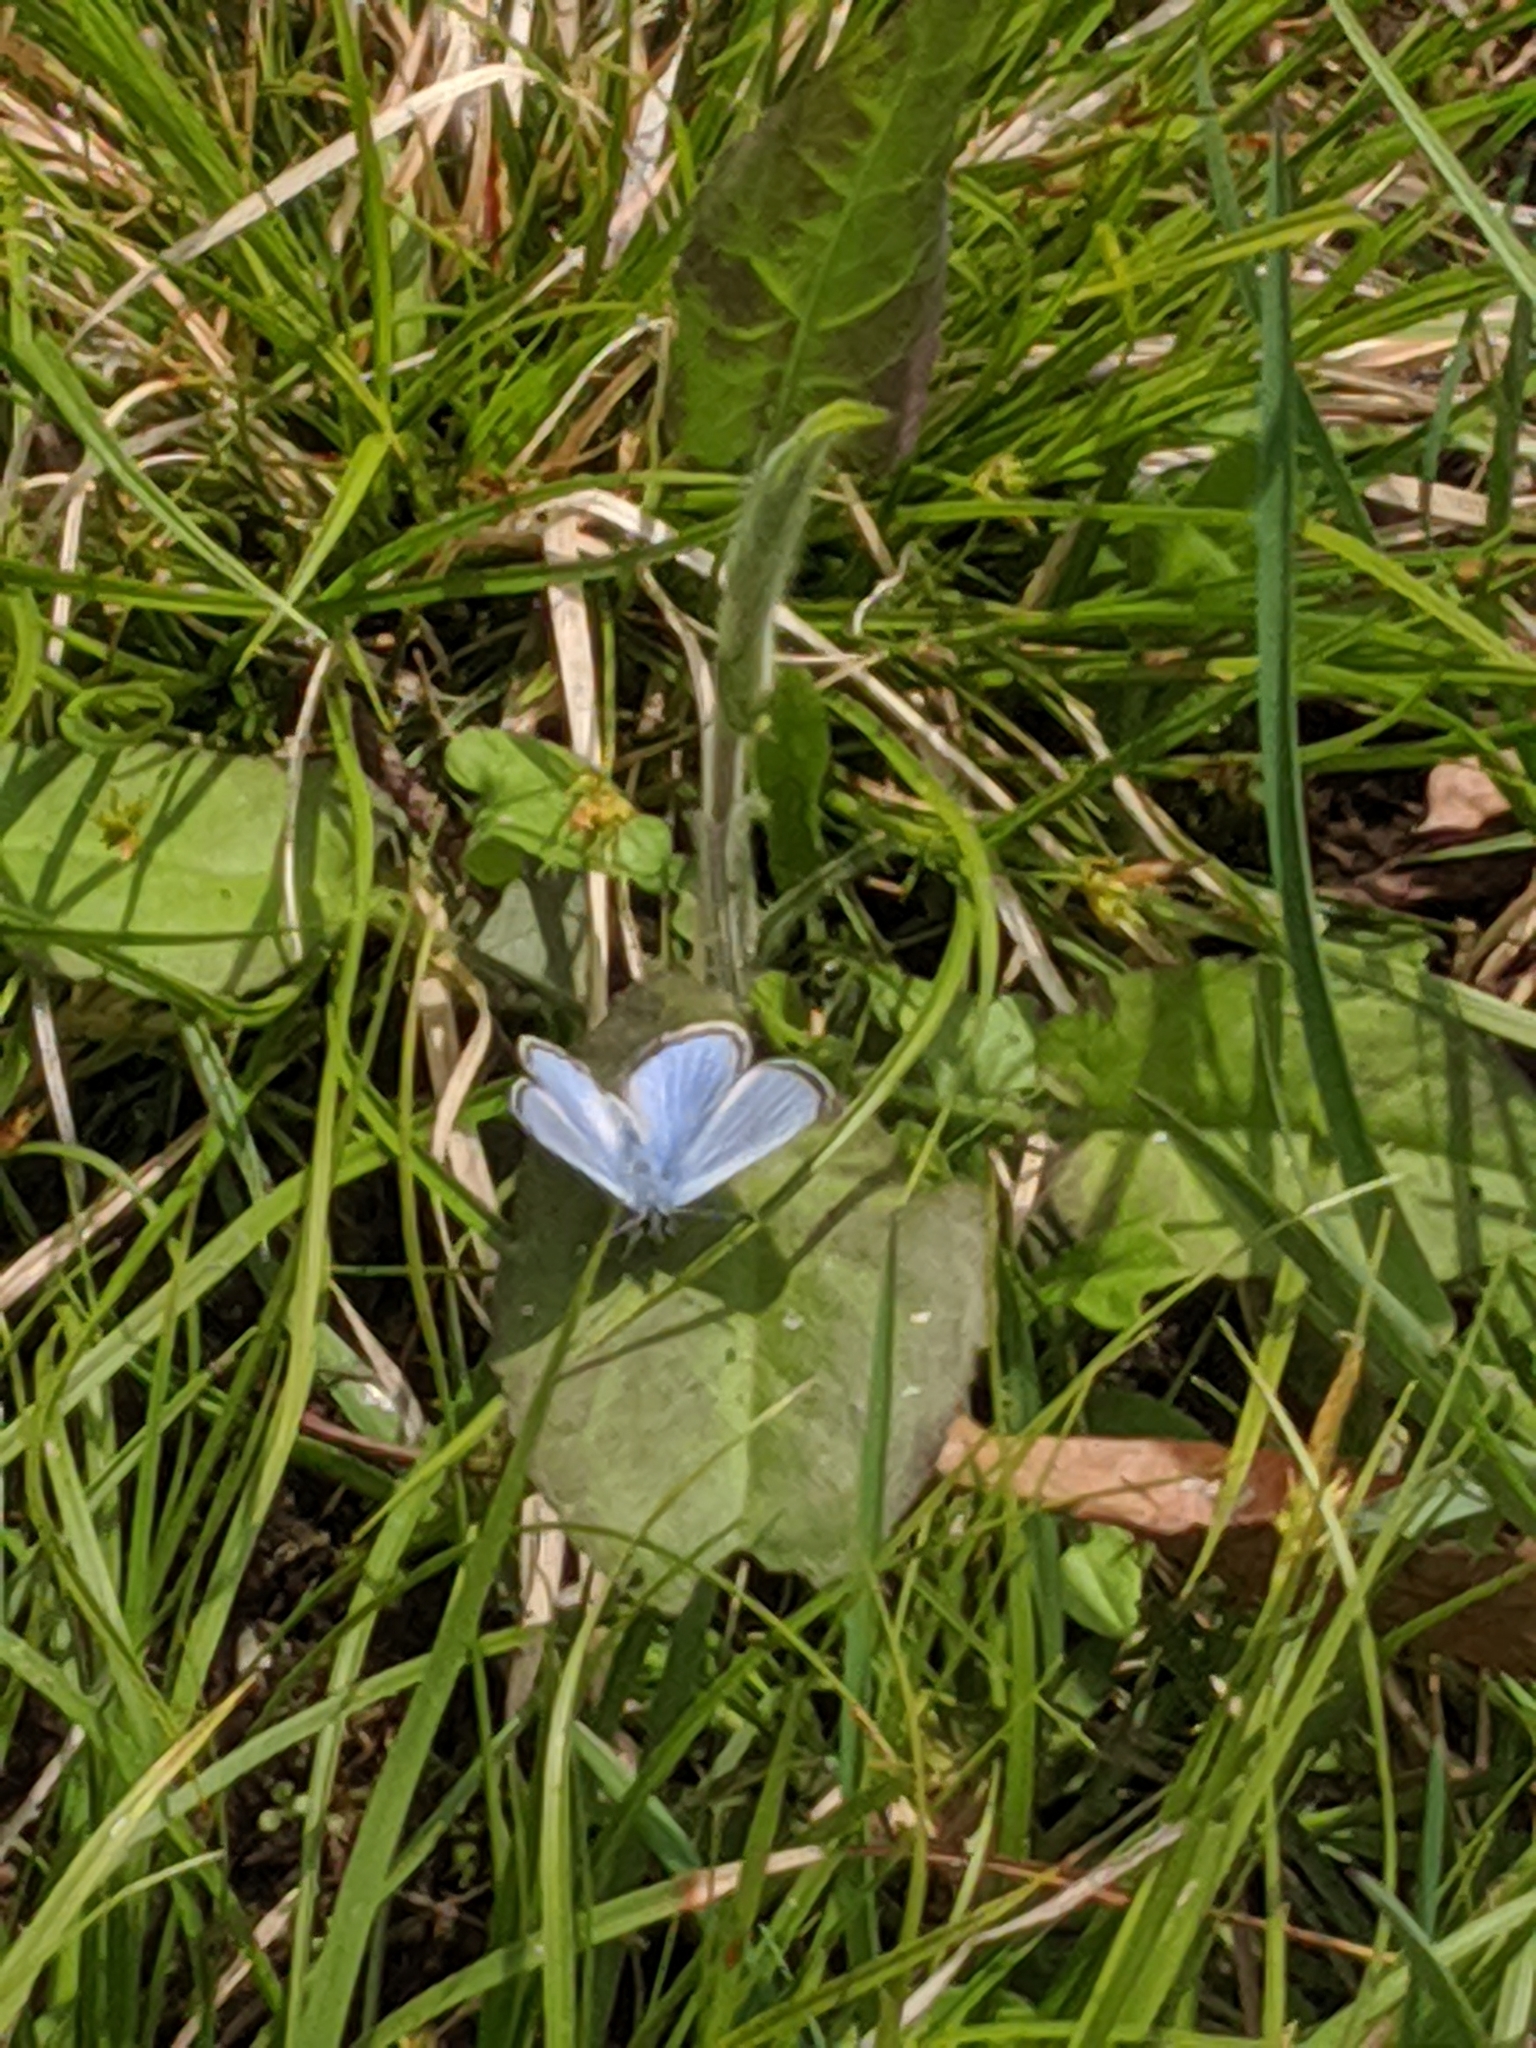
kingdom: Animalia
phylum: Arthropoda
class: Insecta
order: Lepidoptera
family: Lycaenidae
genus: Glaucopsyche
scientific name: Glaucopsyche lygdamus
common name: Silvery blue
